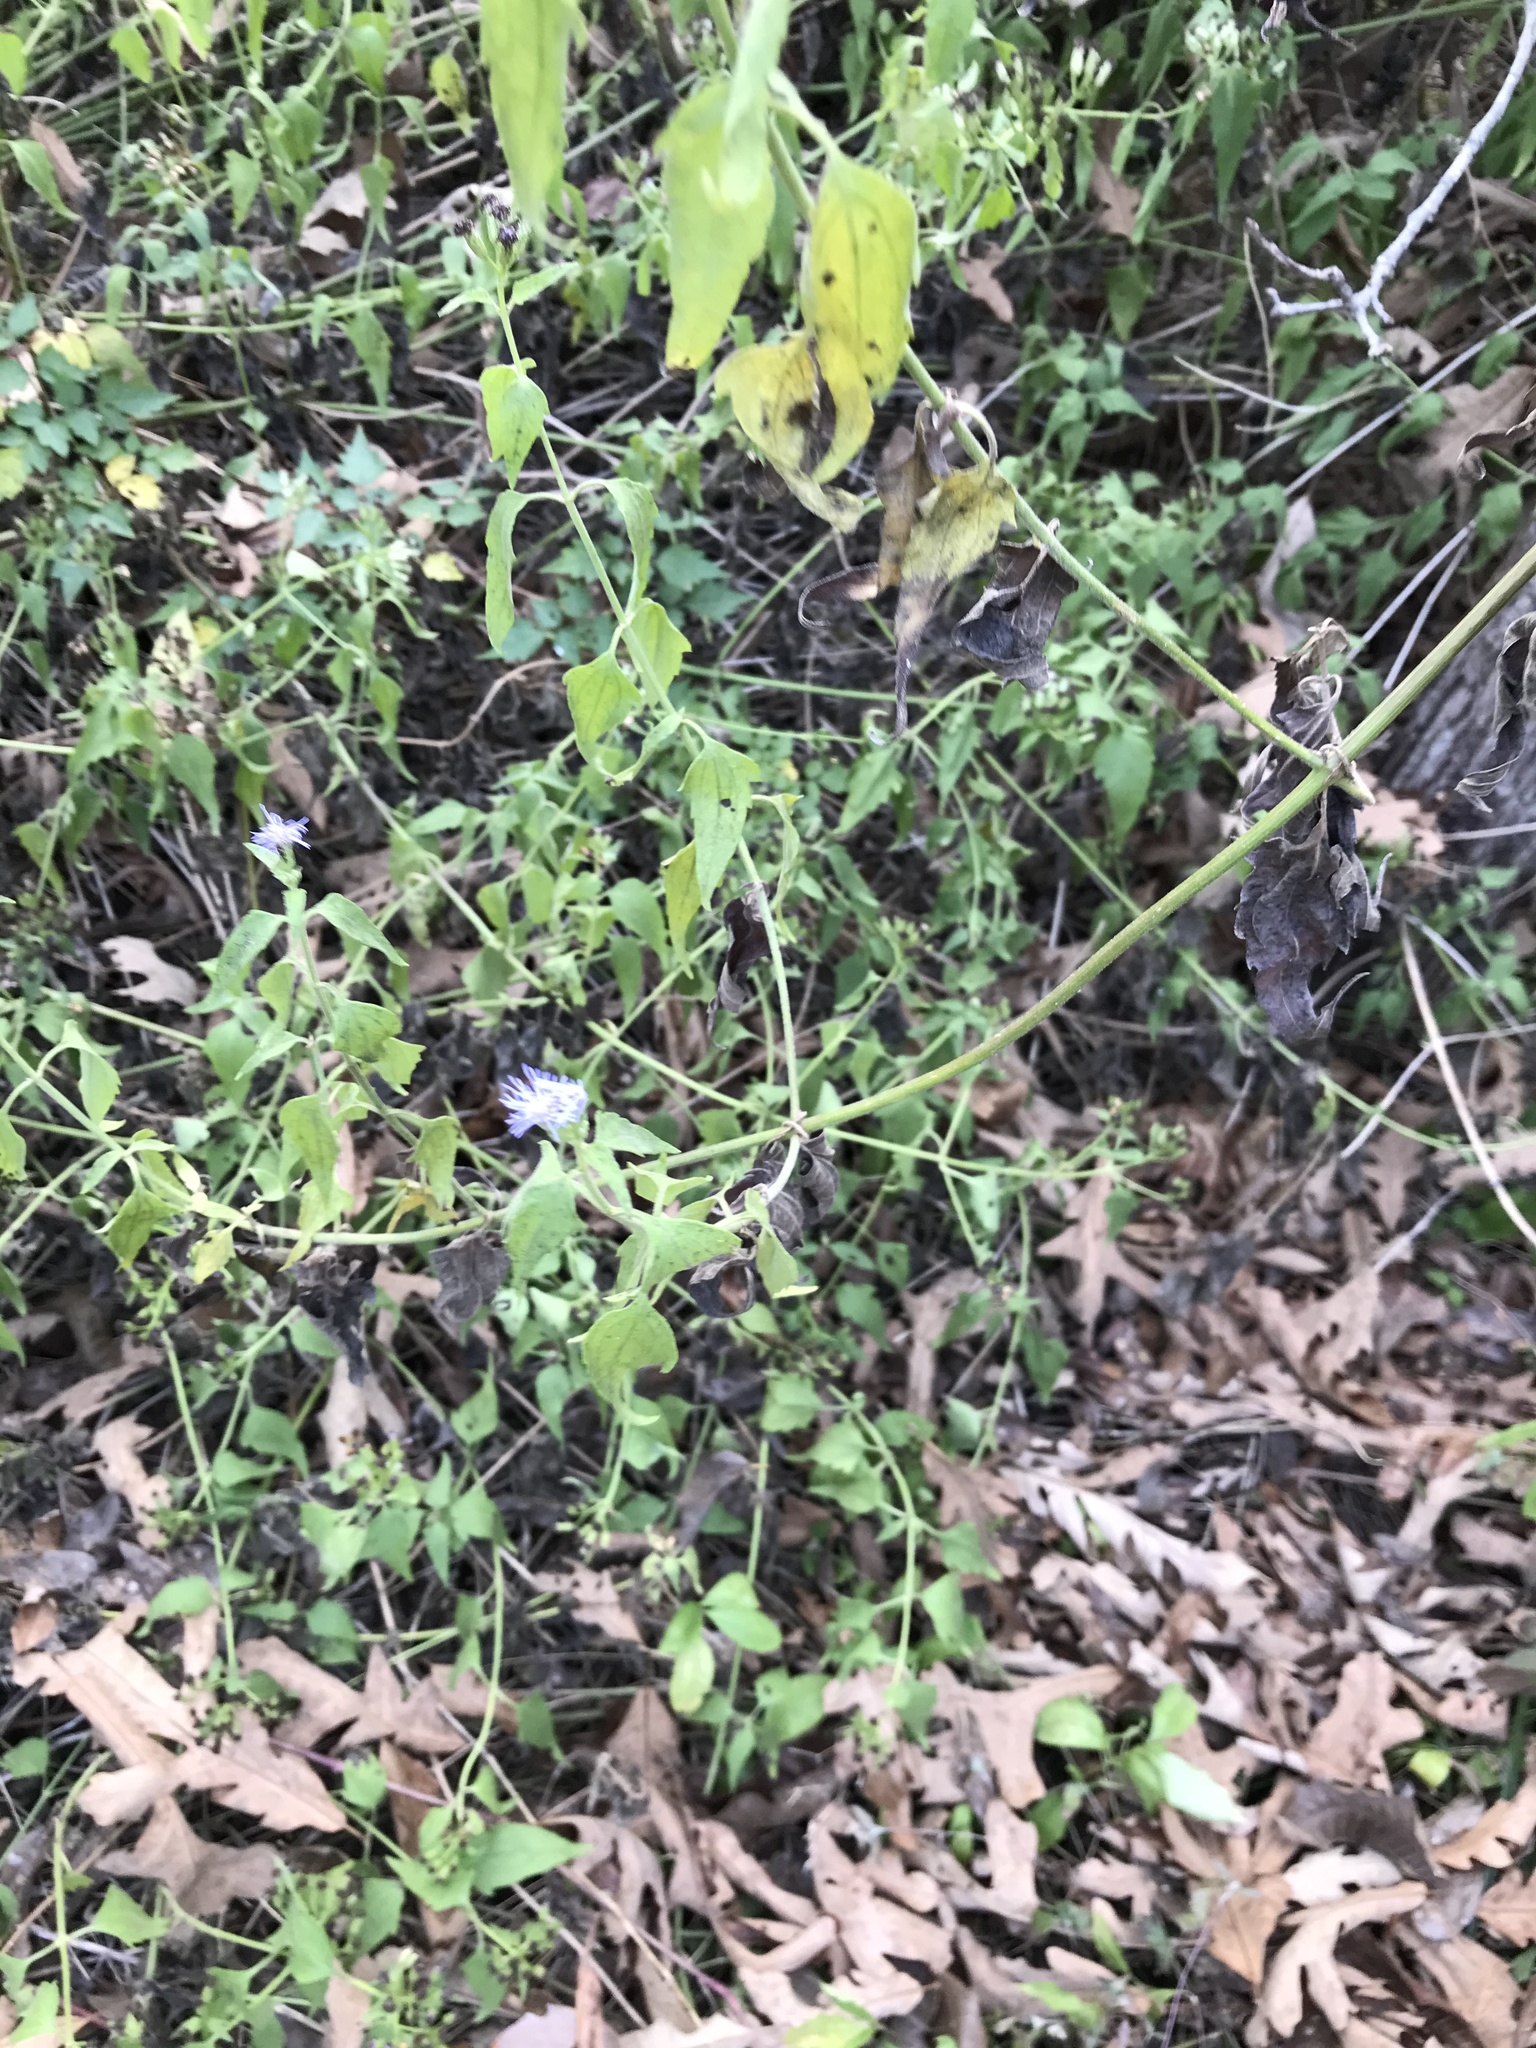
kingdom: Plantae
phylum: Tracheophyta
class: Magnoliopsida
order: Asterales
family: Asteraceae
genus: Chromolaena
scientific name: Chromolaena odorata
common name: Siamweed
